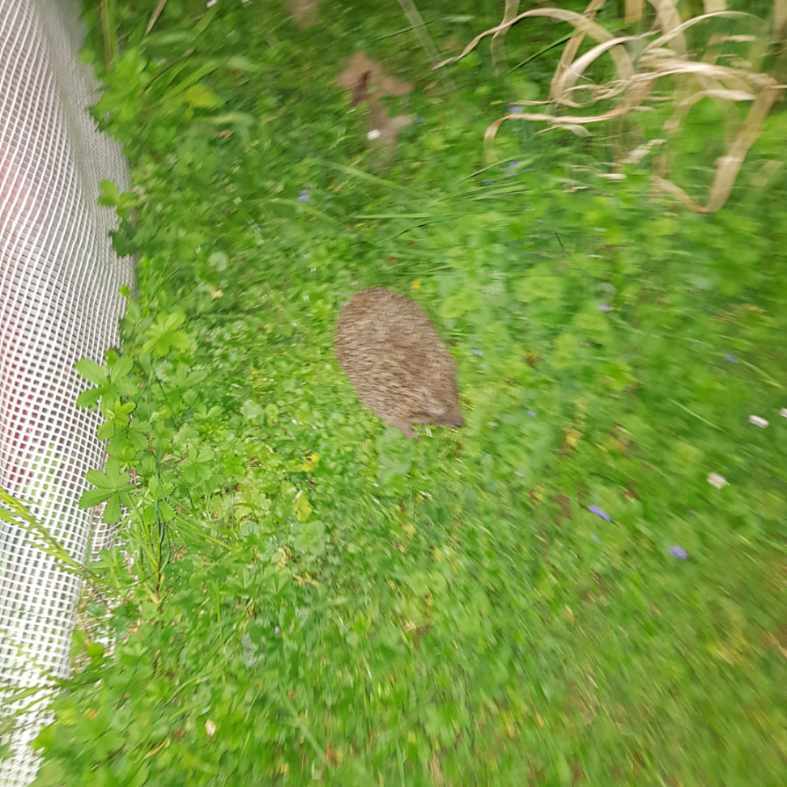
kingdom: Animalia
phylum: Chordata
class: Mammalia
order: Erinaceomorpha
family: Erinaceidae
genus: Erinaceus
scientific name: Erinaceus europaeus
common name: West european hedgehog
